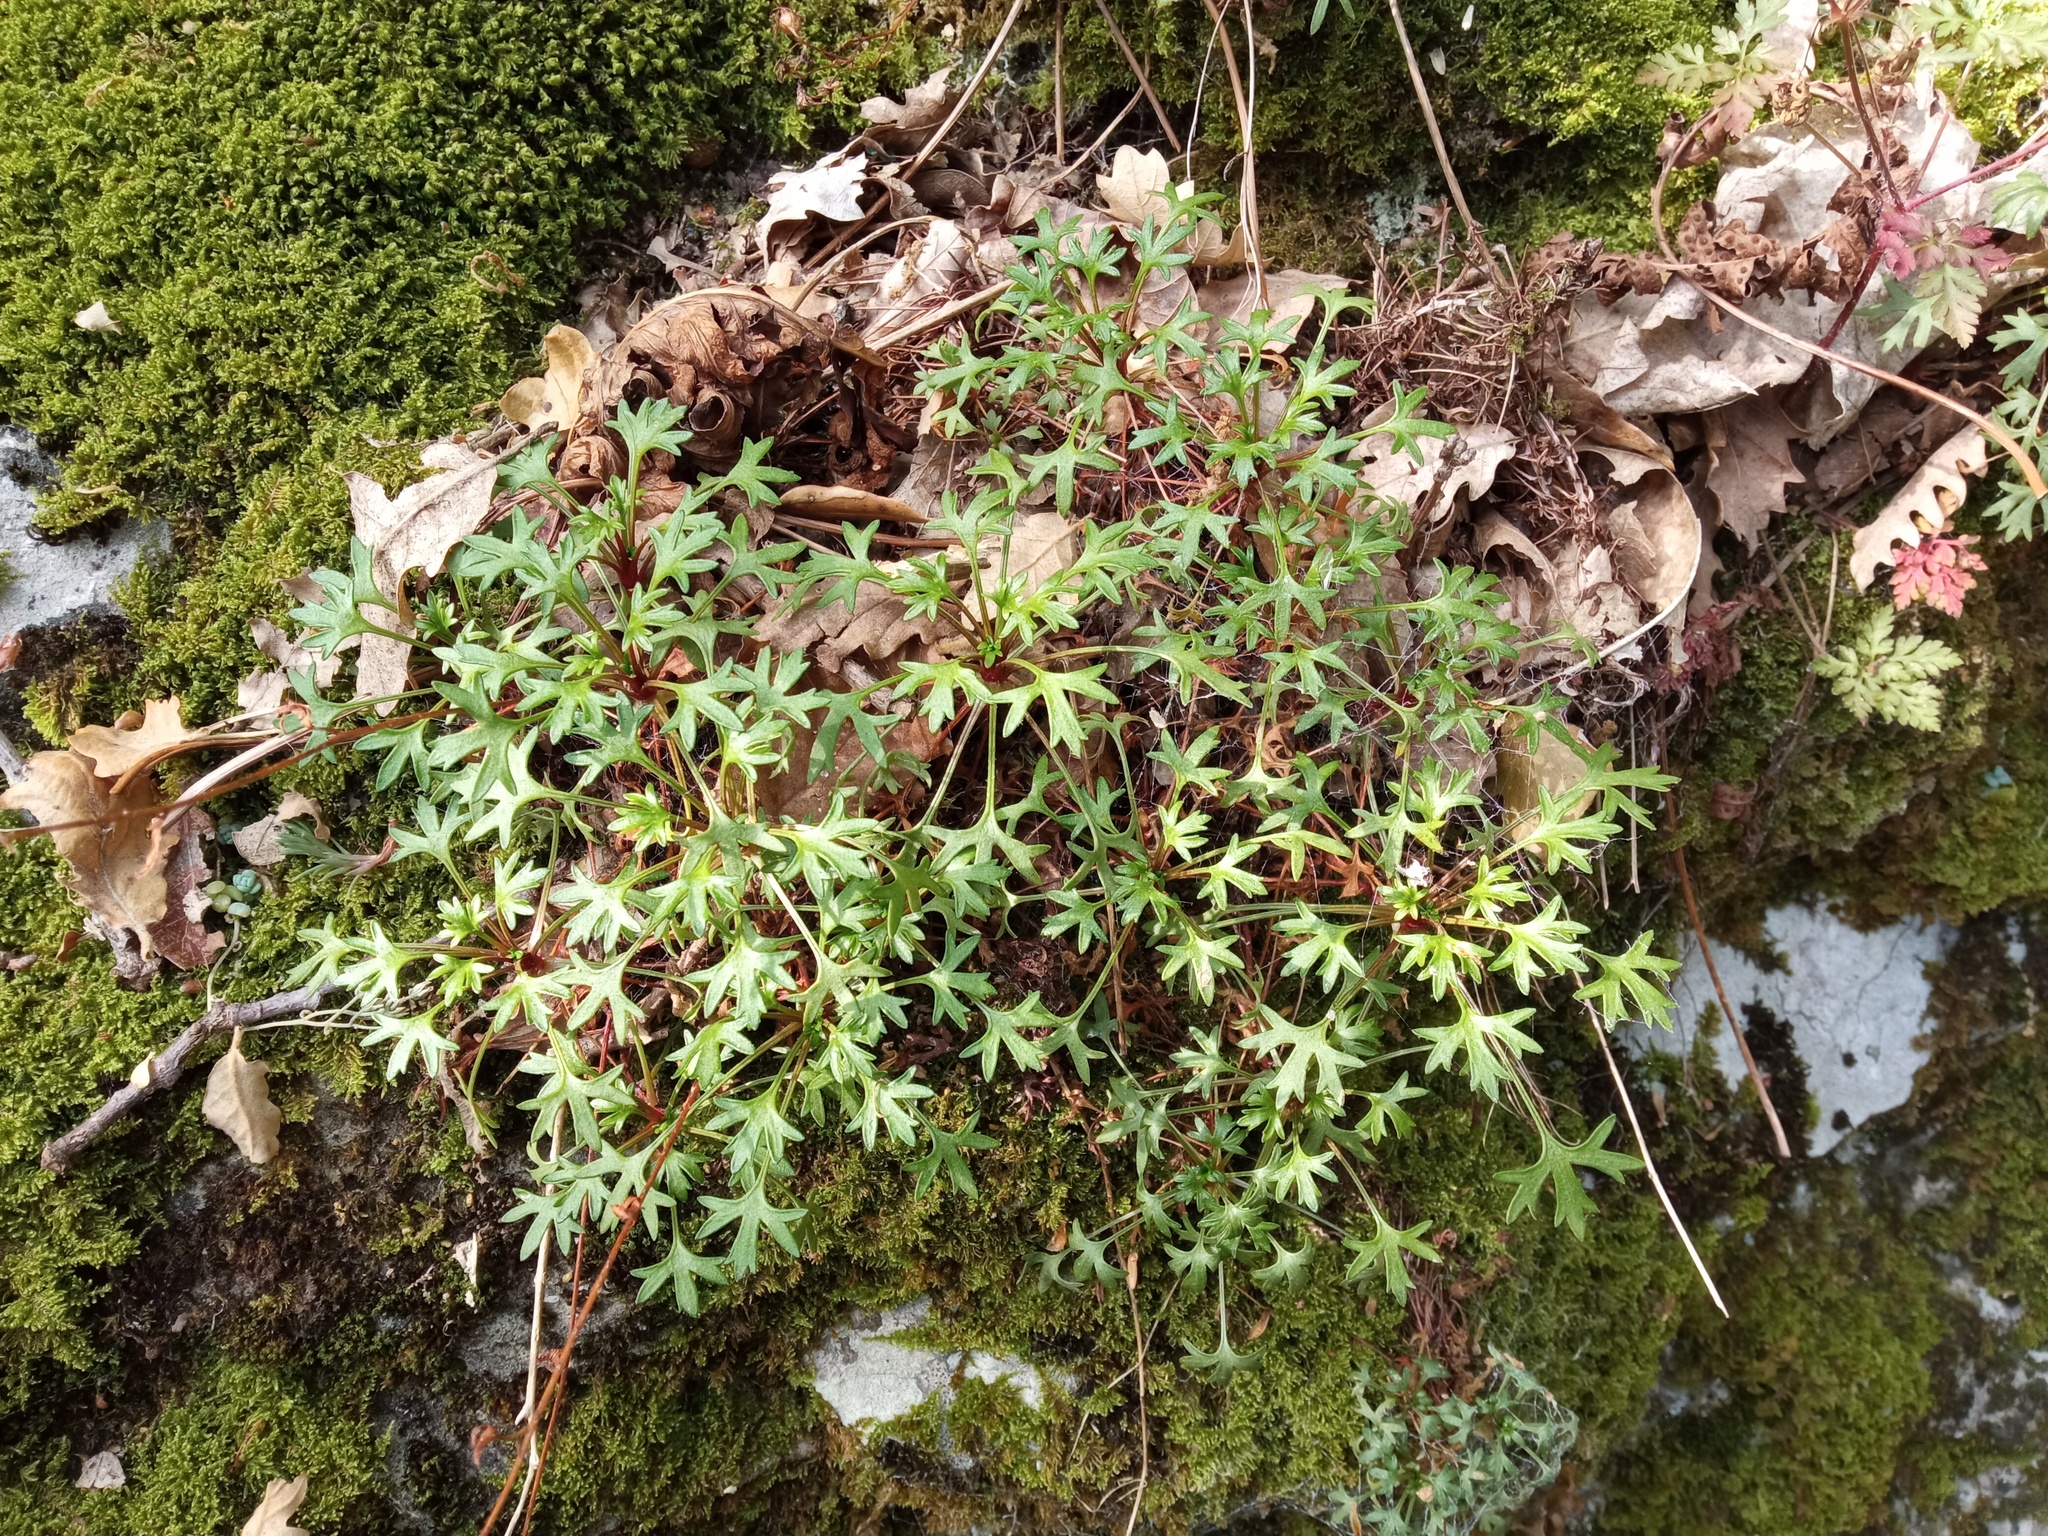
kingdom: Plantae
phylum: Tracheophyta
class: Magnoliopsida
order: Saxifragales
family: Saxifragaceae
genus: Saxifraga
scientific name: Saxifraga fragilis
